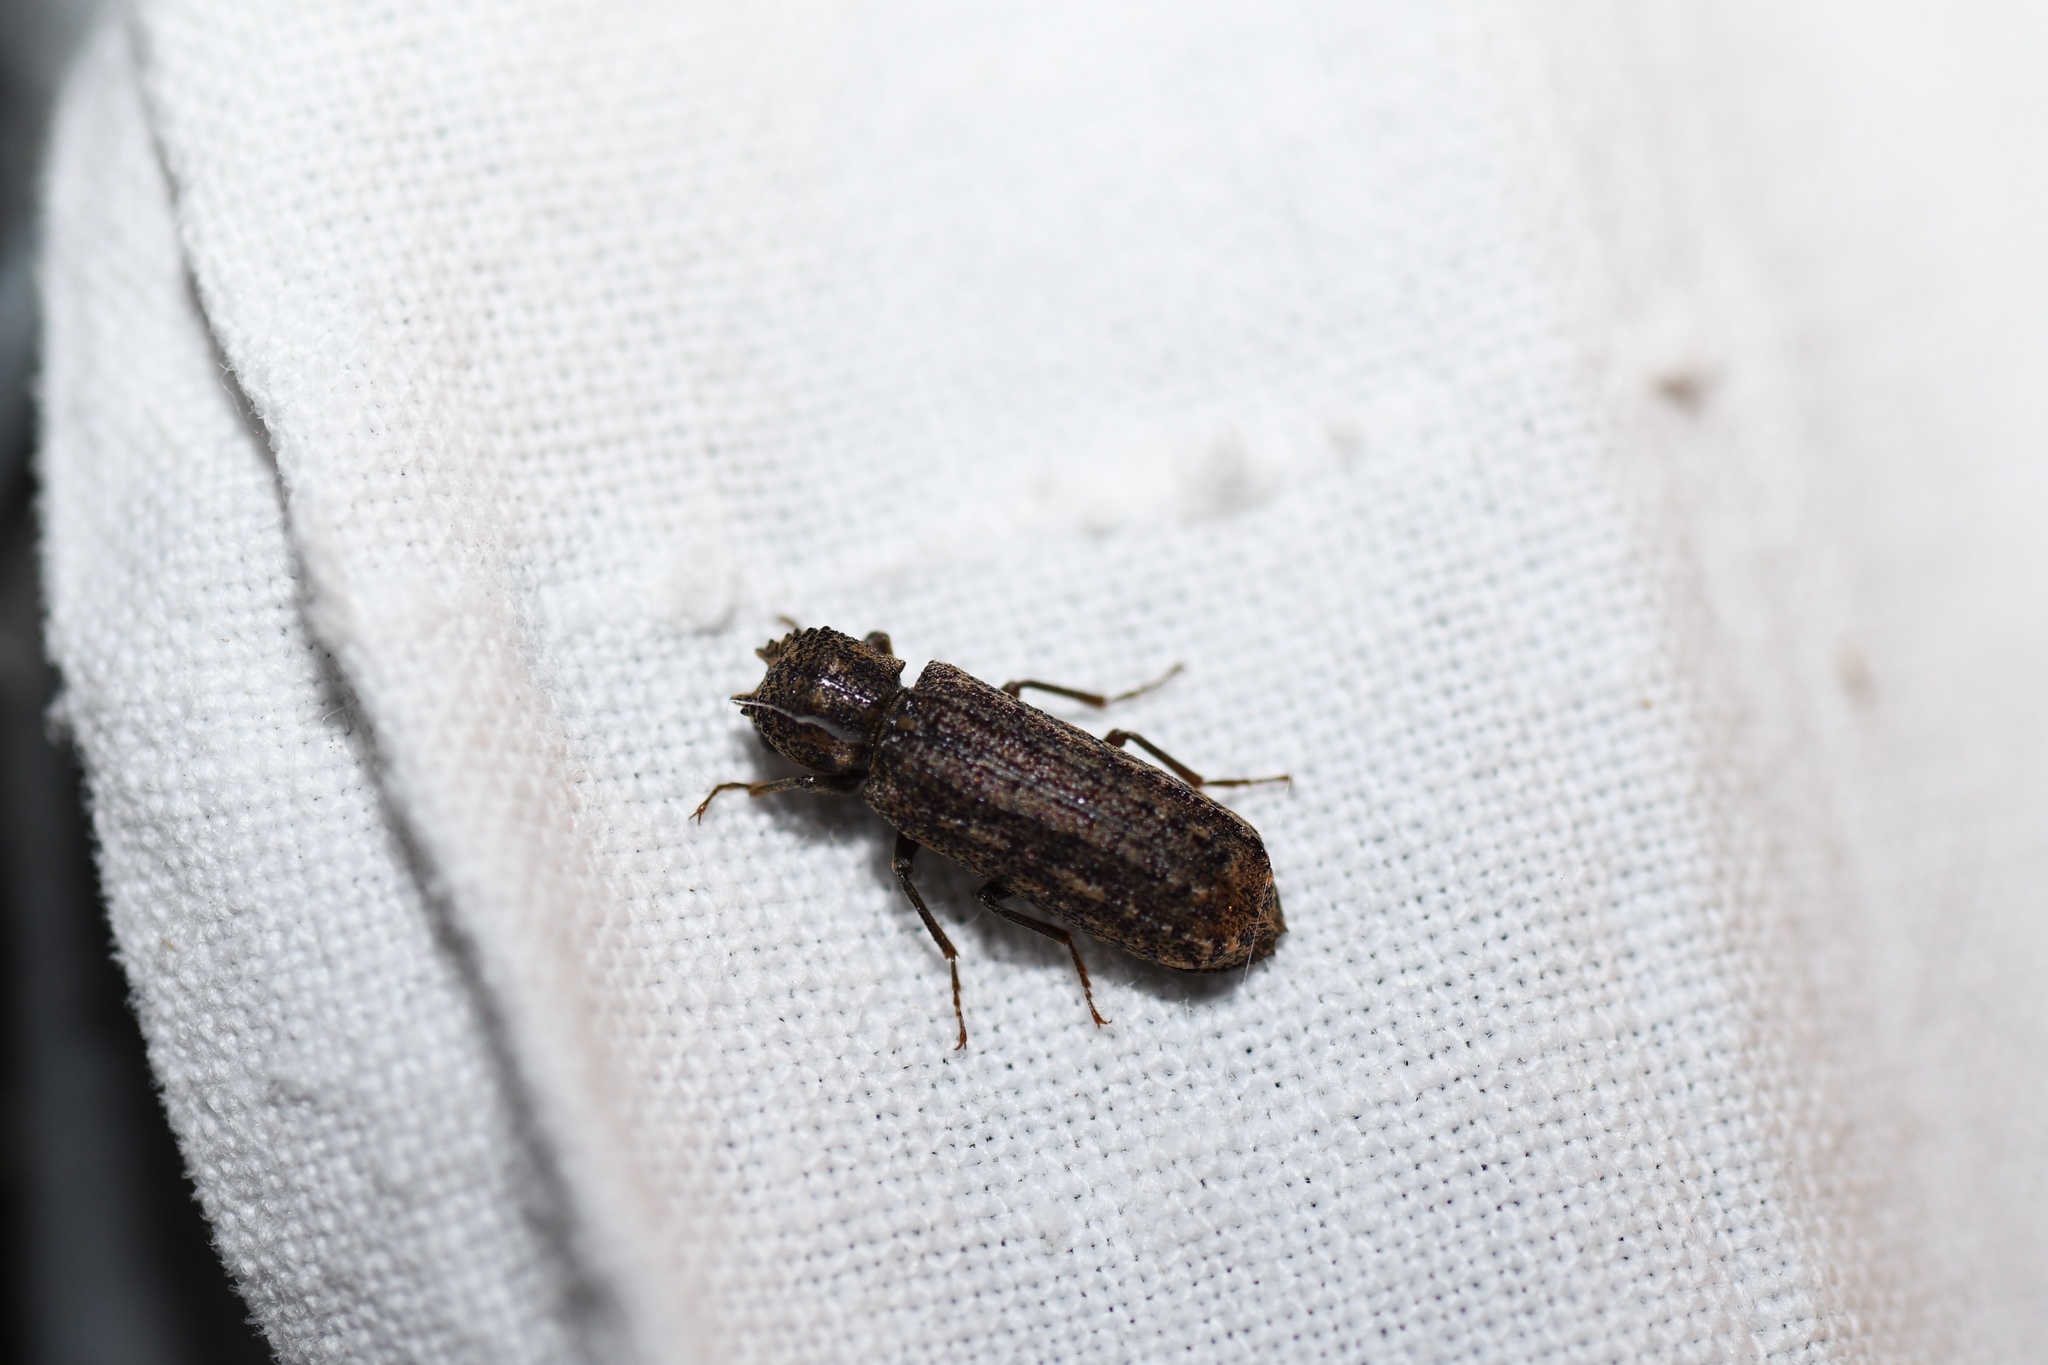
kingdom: Animalia
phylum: Arthropoda
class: Insecta
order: Coleoptera
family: Bostrichidae
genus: Lichenophanes
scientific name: Lichenophanes bicornis
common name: Two-horned powder-post beetle
